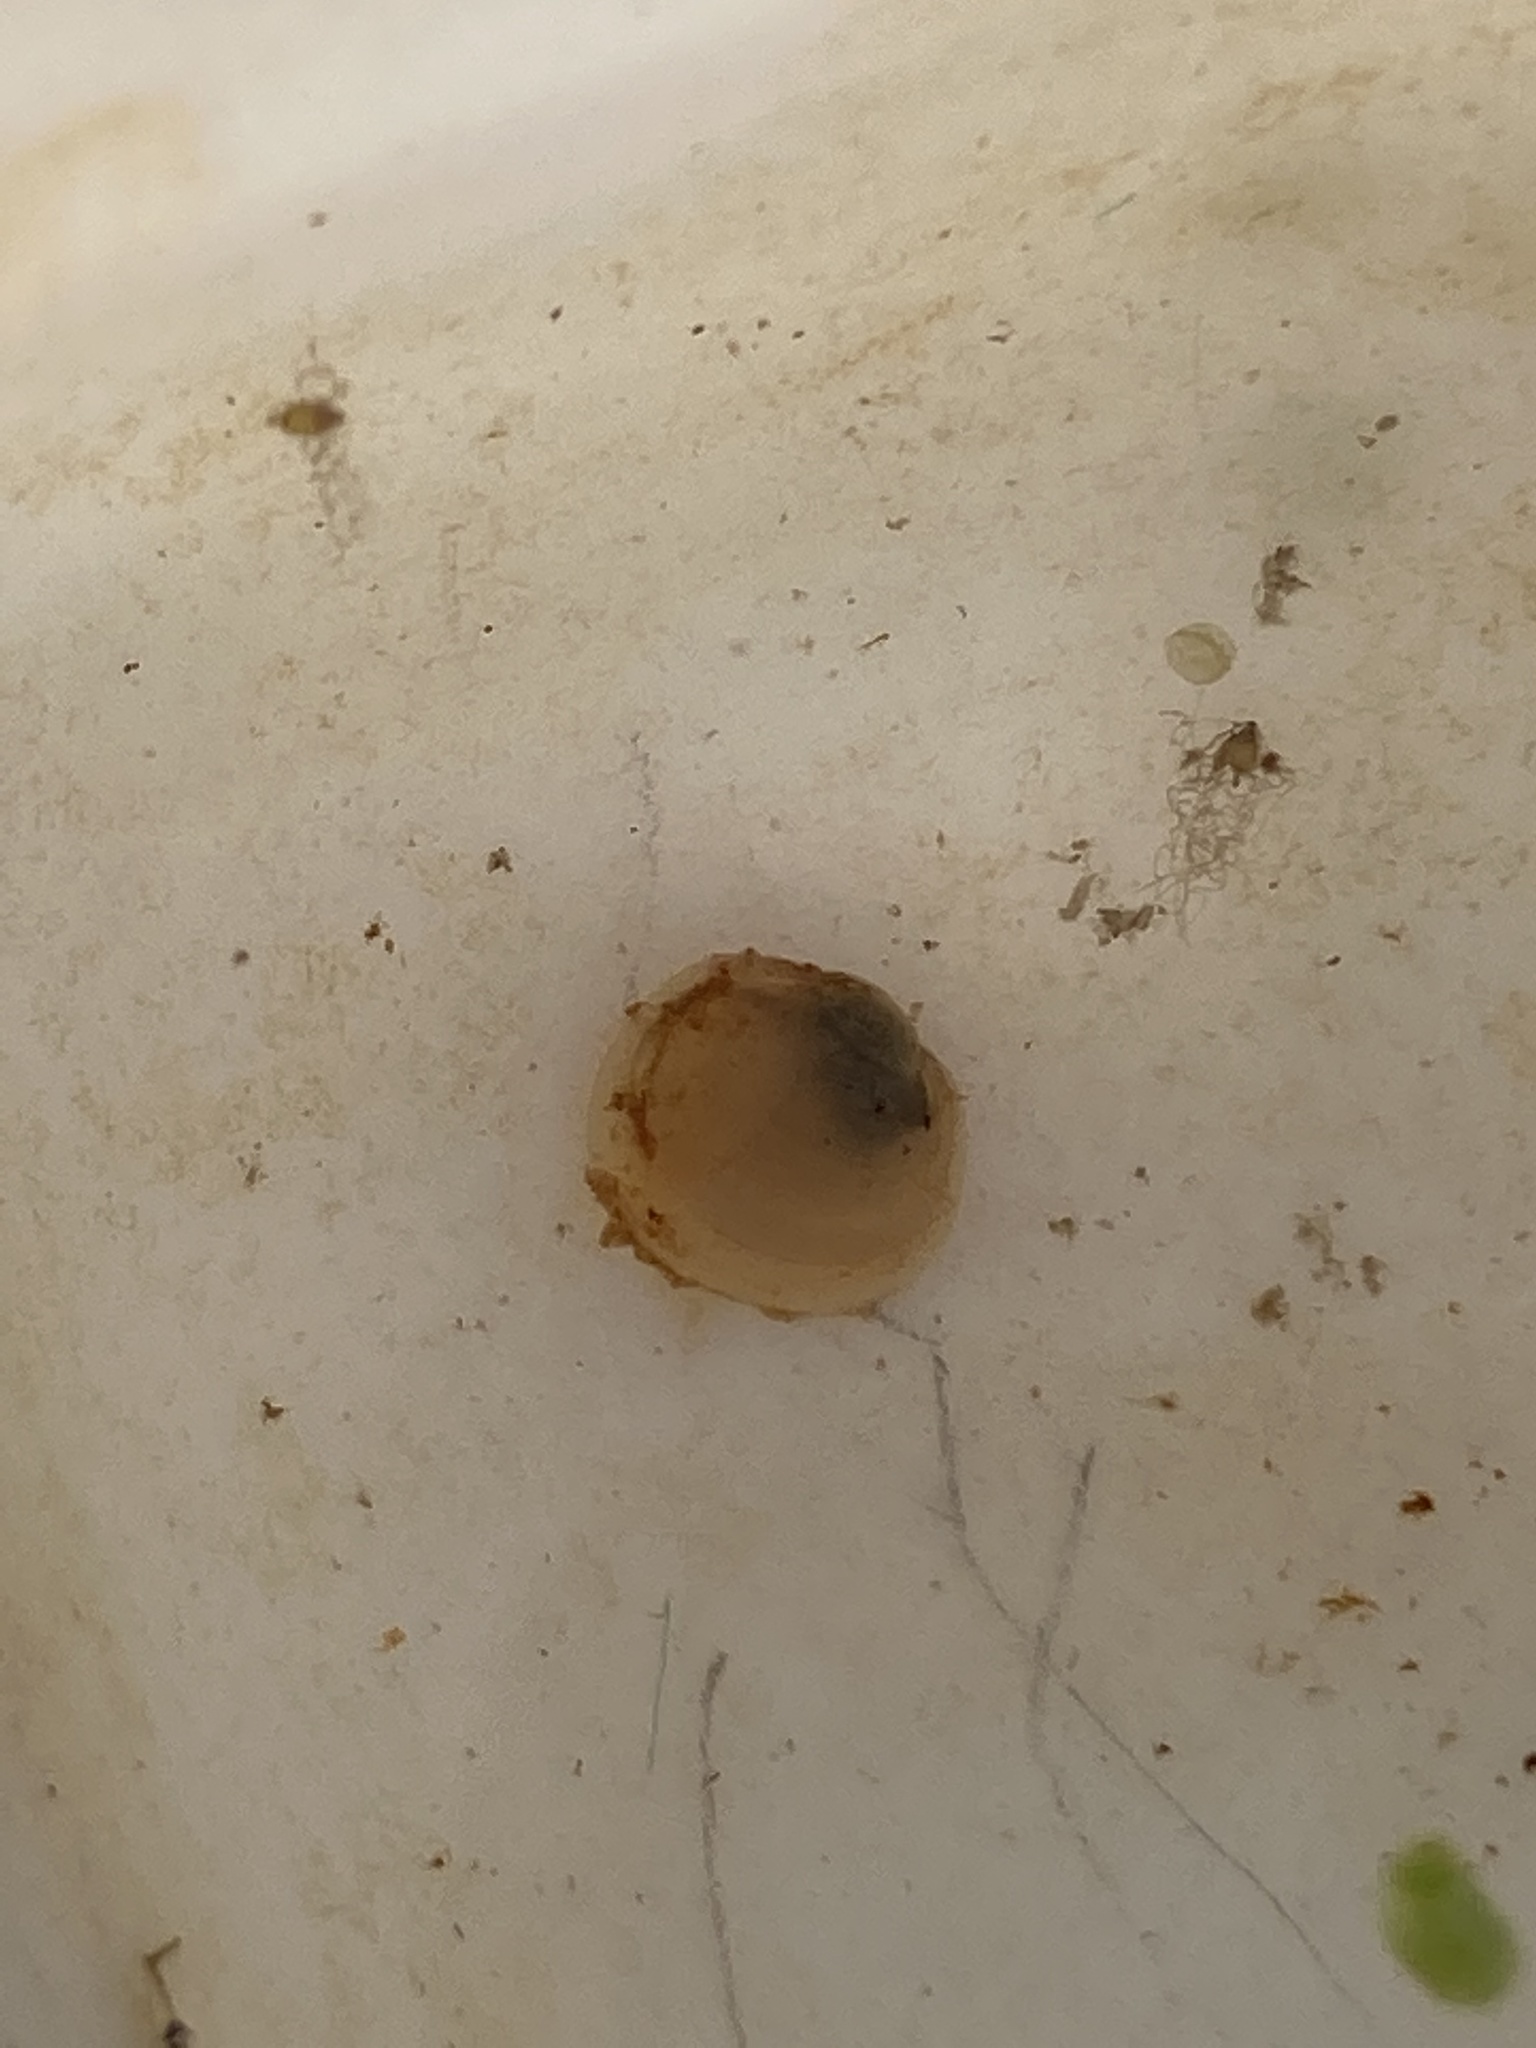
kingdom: Animalia
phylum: Mollusca
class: Bivalvia
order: Sphaeriida
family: Sphaeriidae
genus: Musculium
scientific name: Musculium partumeium
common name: Swamp fingernailclam
